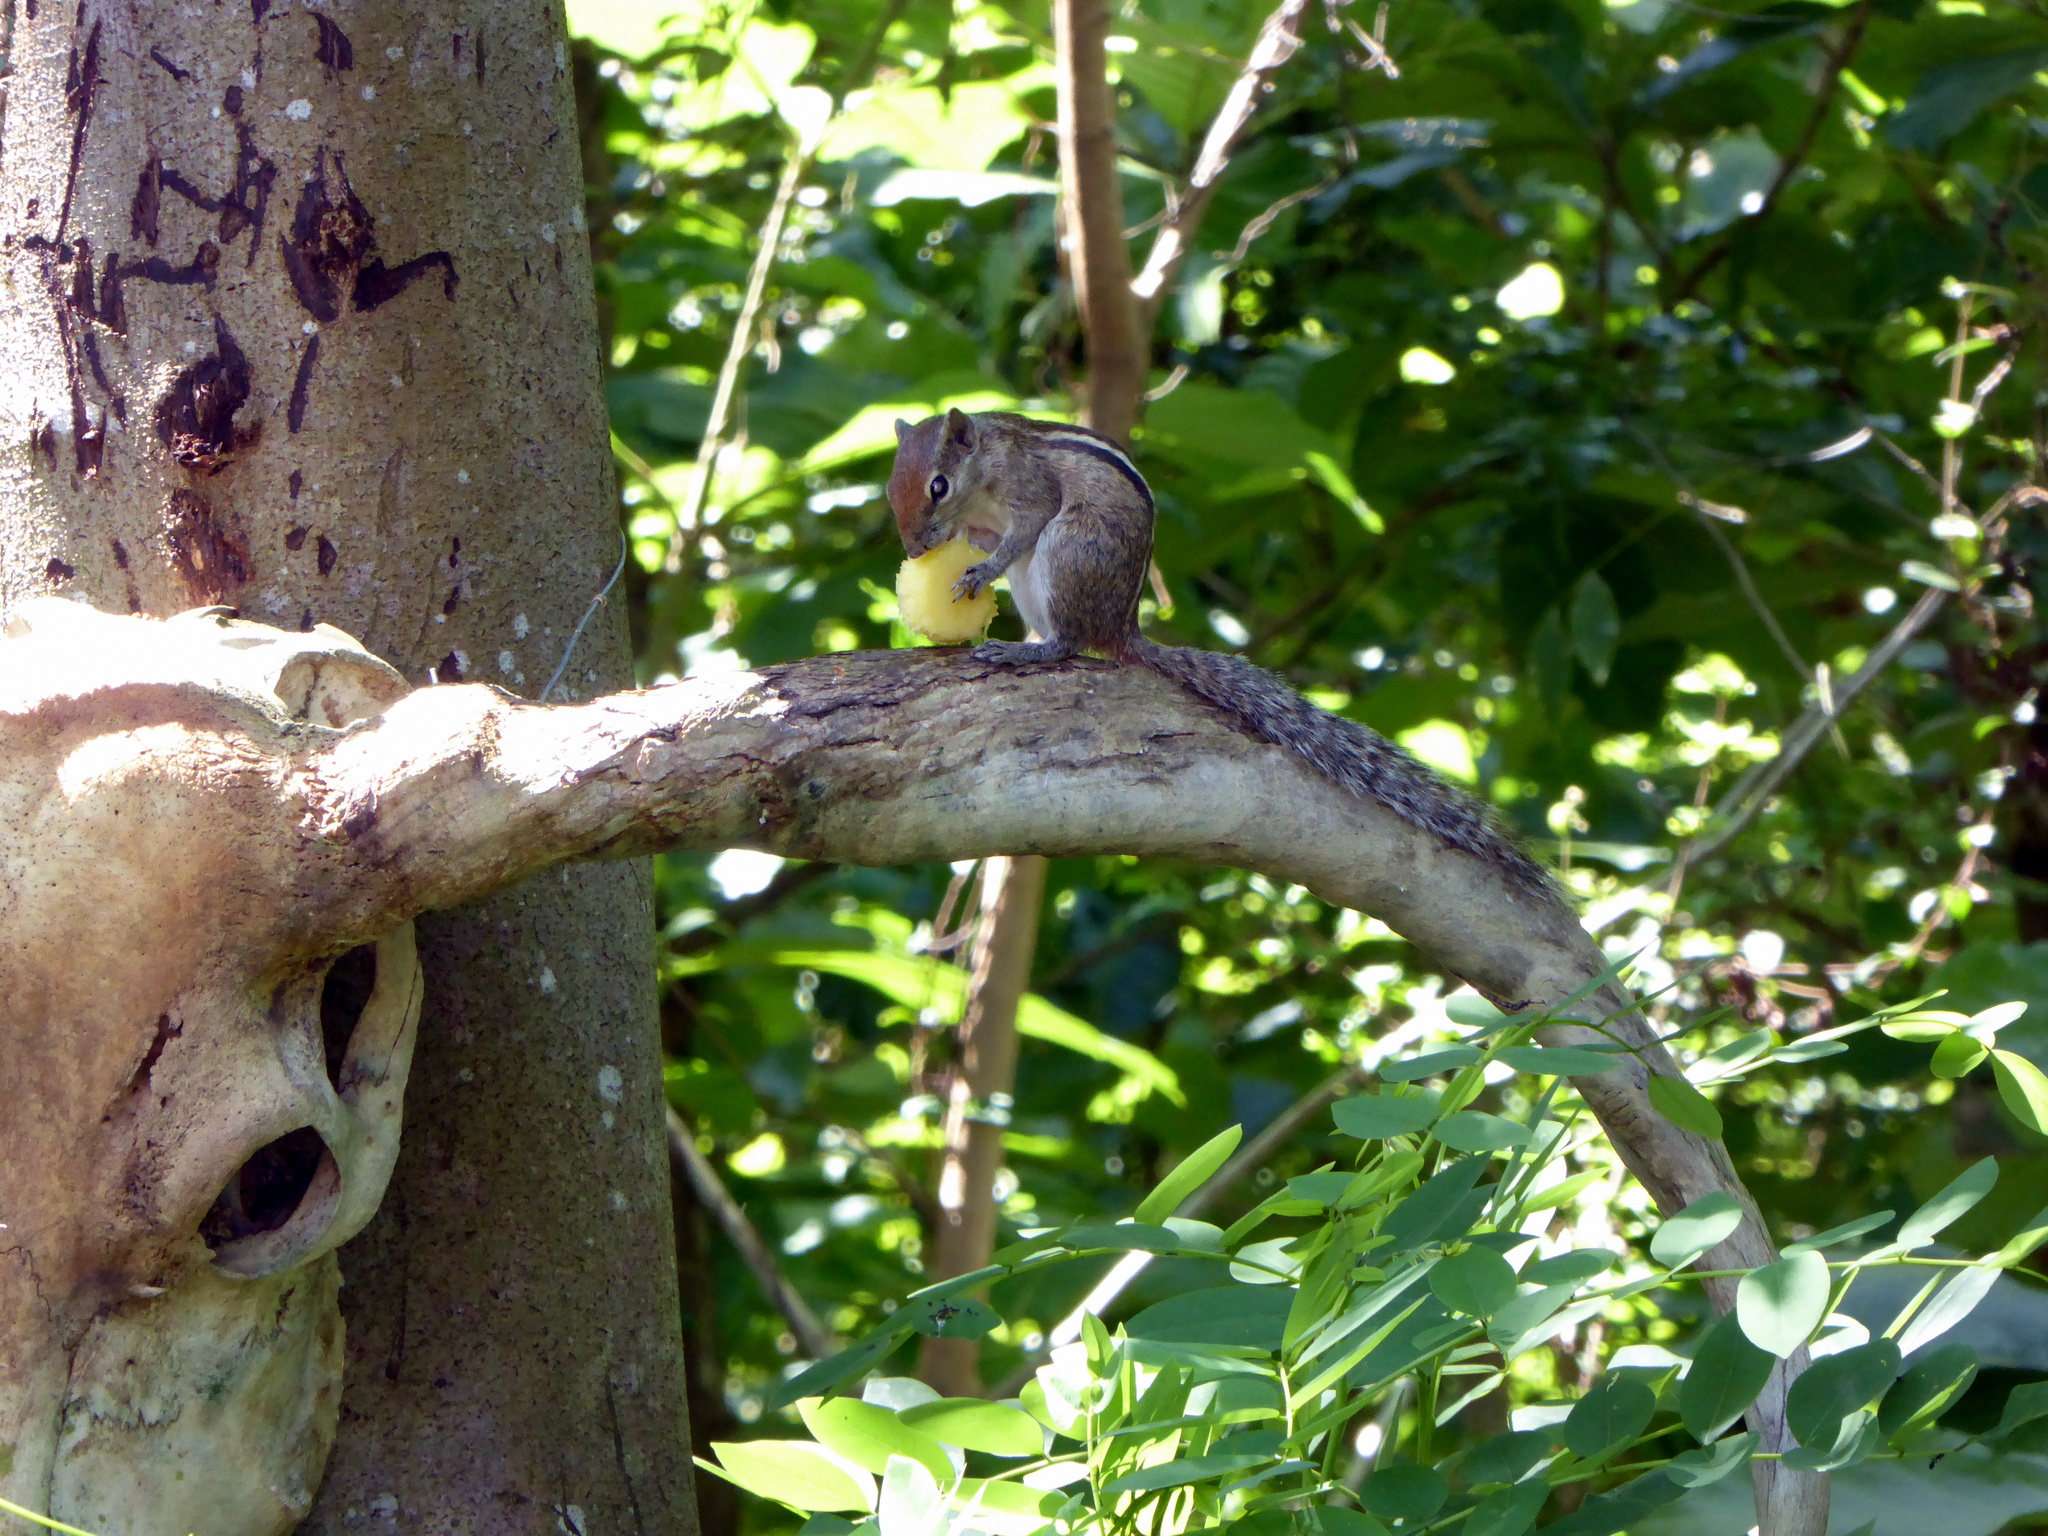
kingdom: Animalia
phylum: Chordata
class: Mammalia
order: Rodentia
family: Sciuridae
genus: Funambulus
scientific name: Funambulus palmarum
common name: Indian palm squirrel
